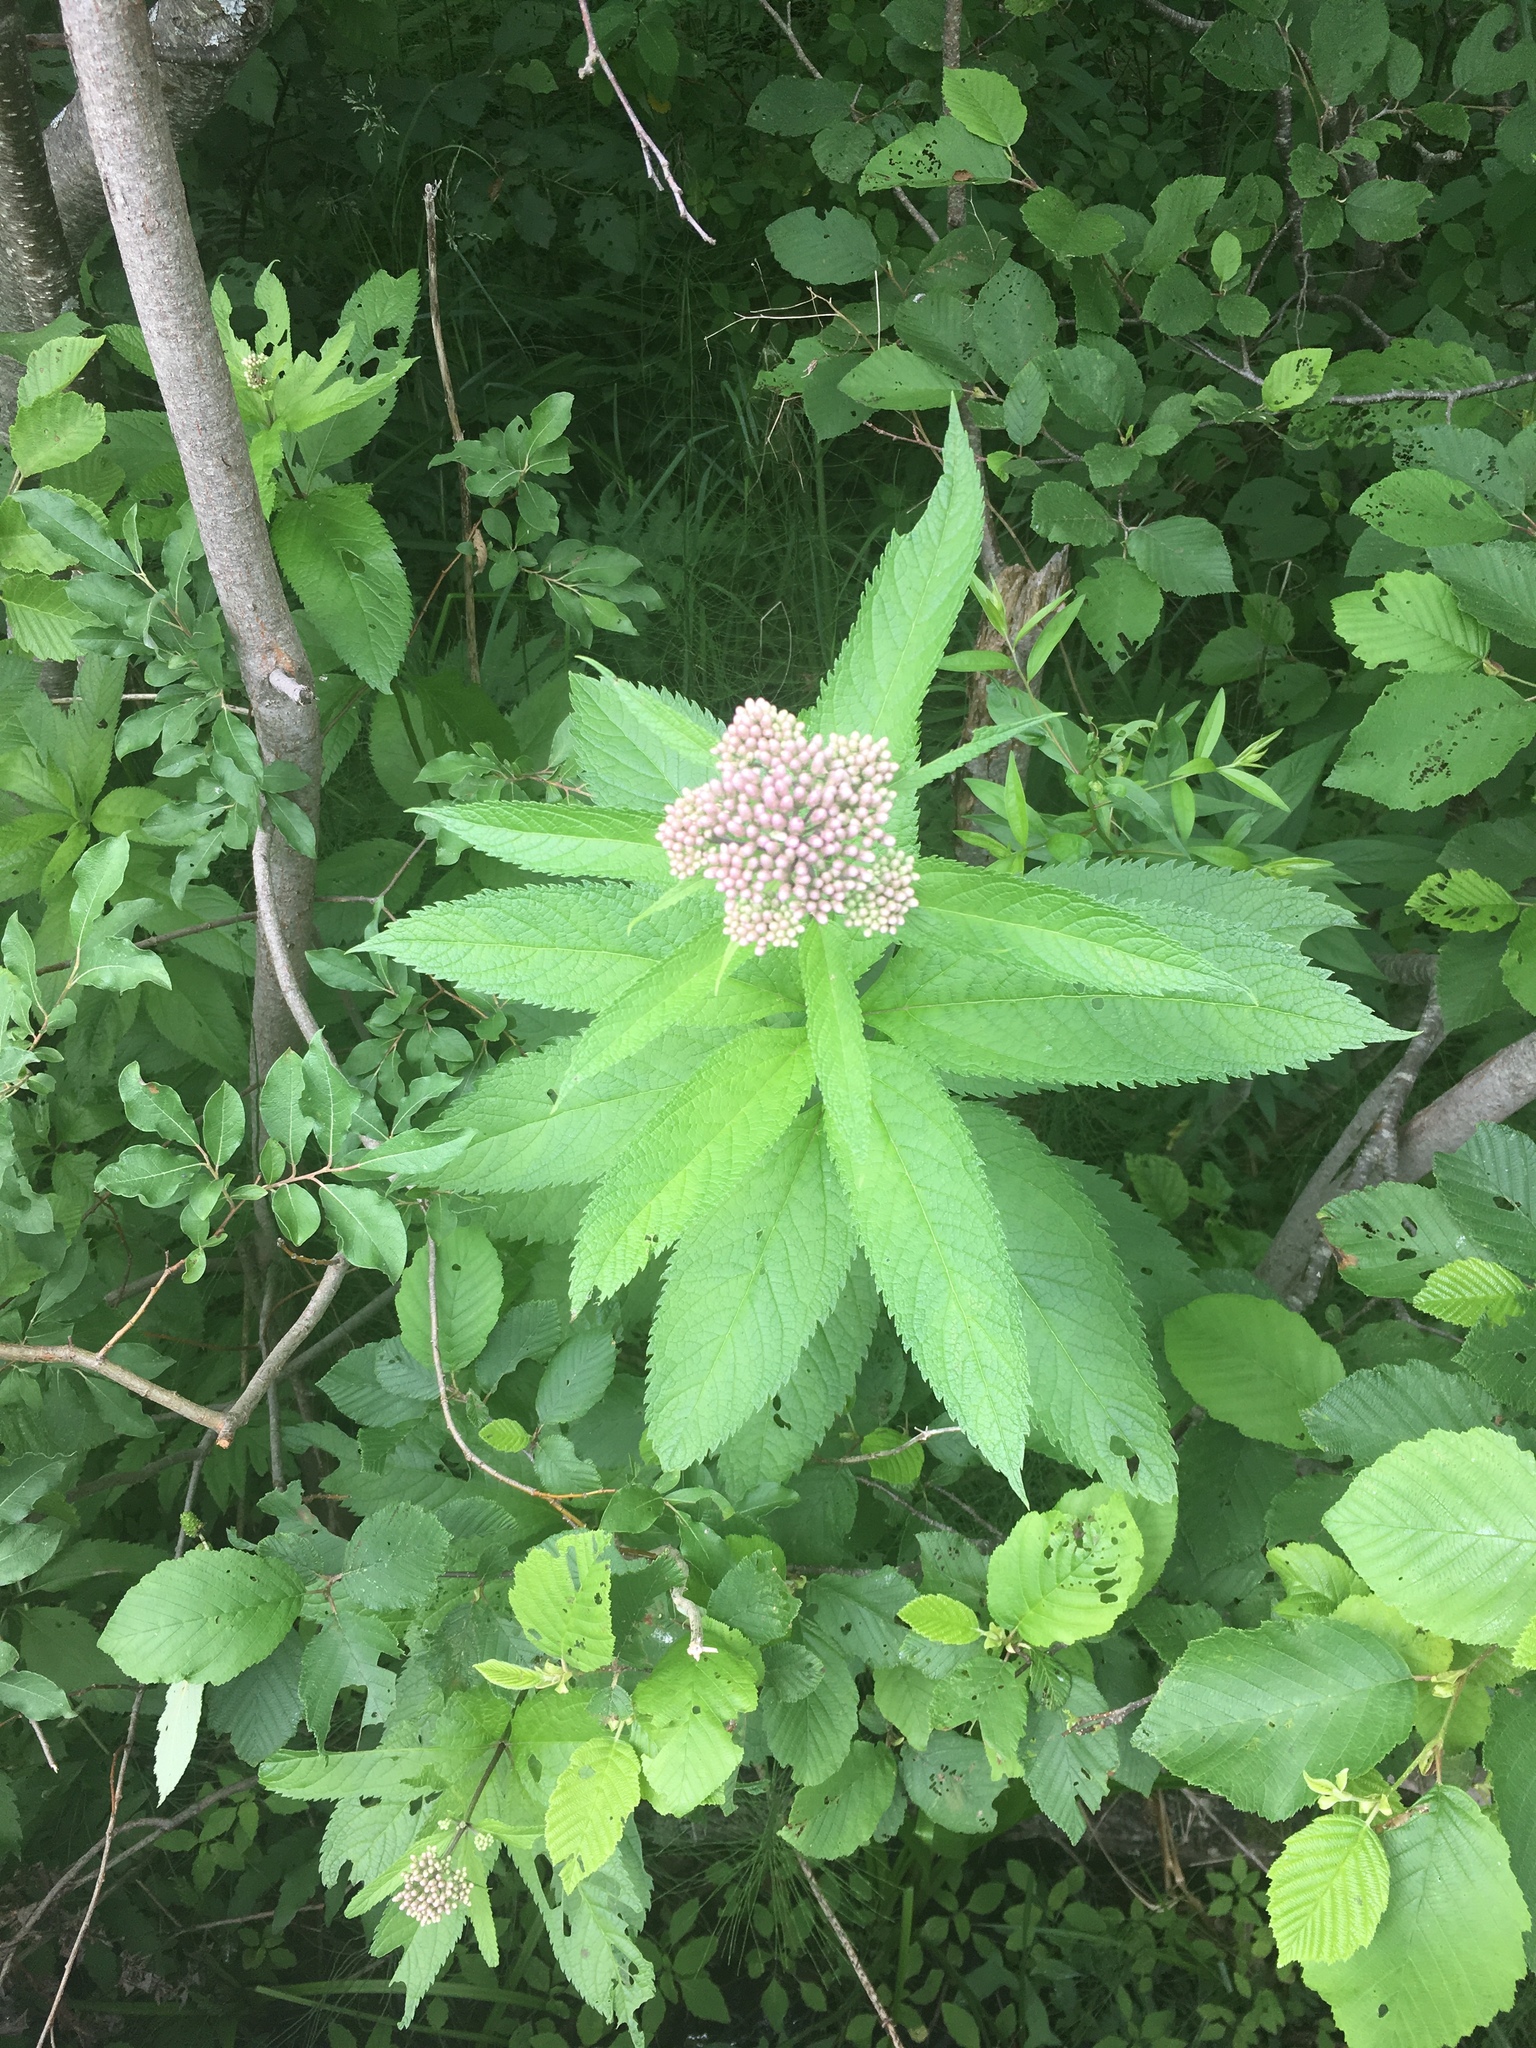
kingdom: Plantae
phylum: Tracheophyta
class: Magnoliopsida
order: Asterales
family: Asteraceae
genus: Eutrochium
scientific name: Eutrochium maculatum
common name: Spotted joe pye weed
